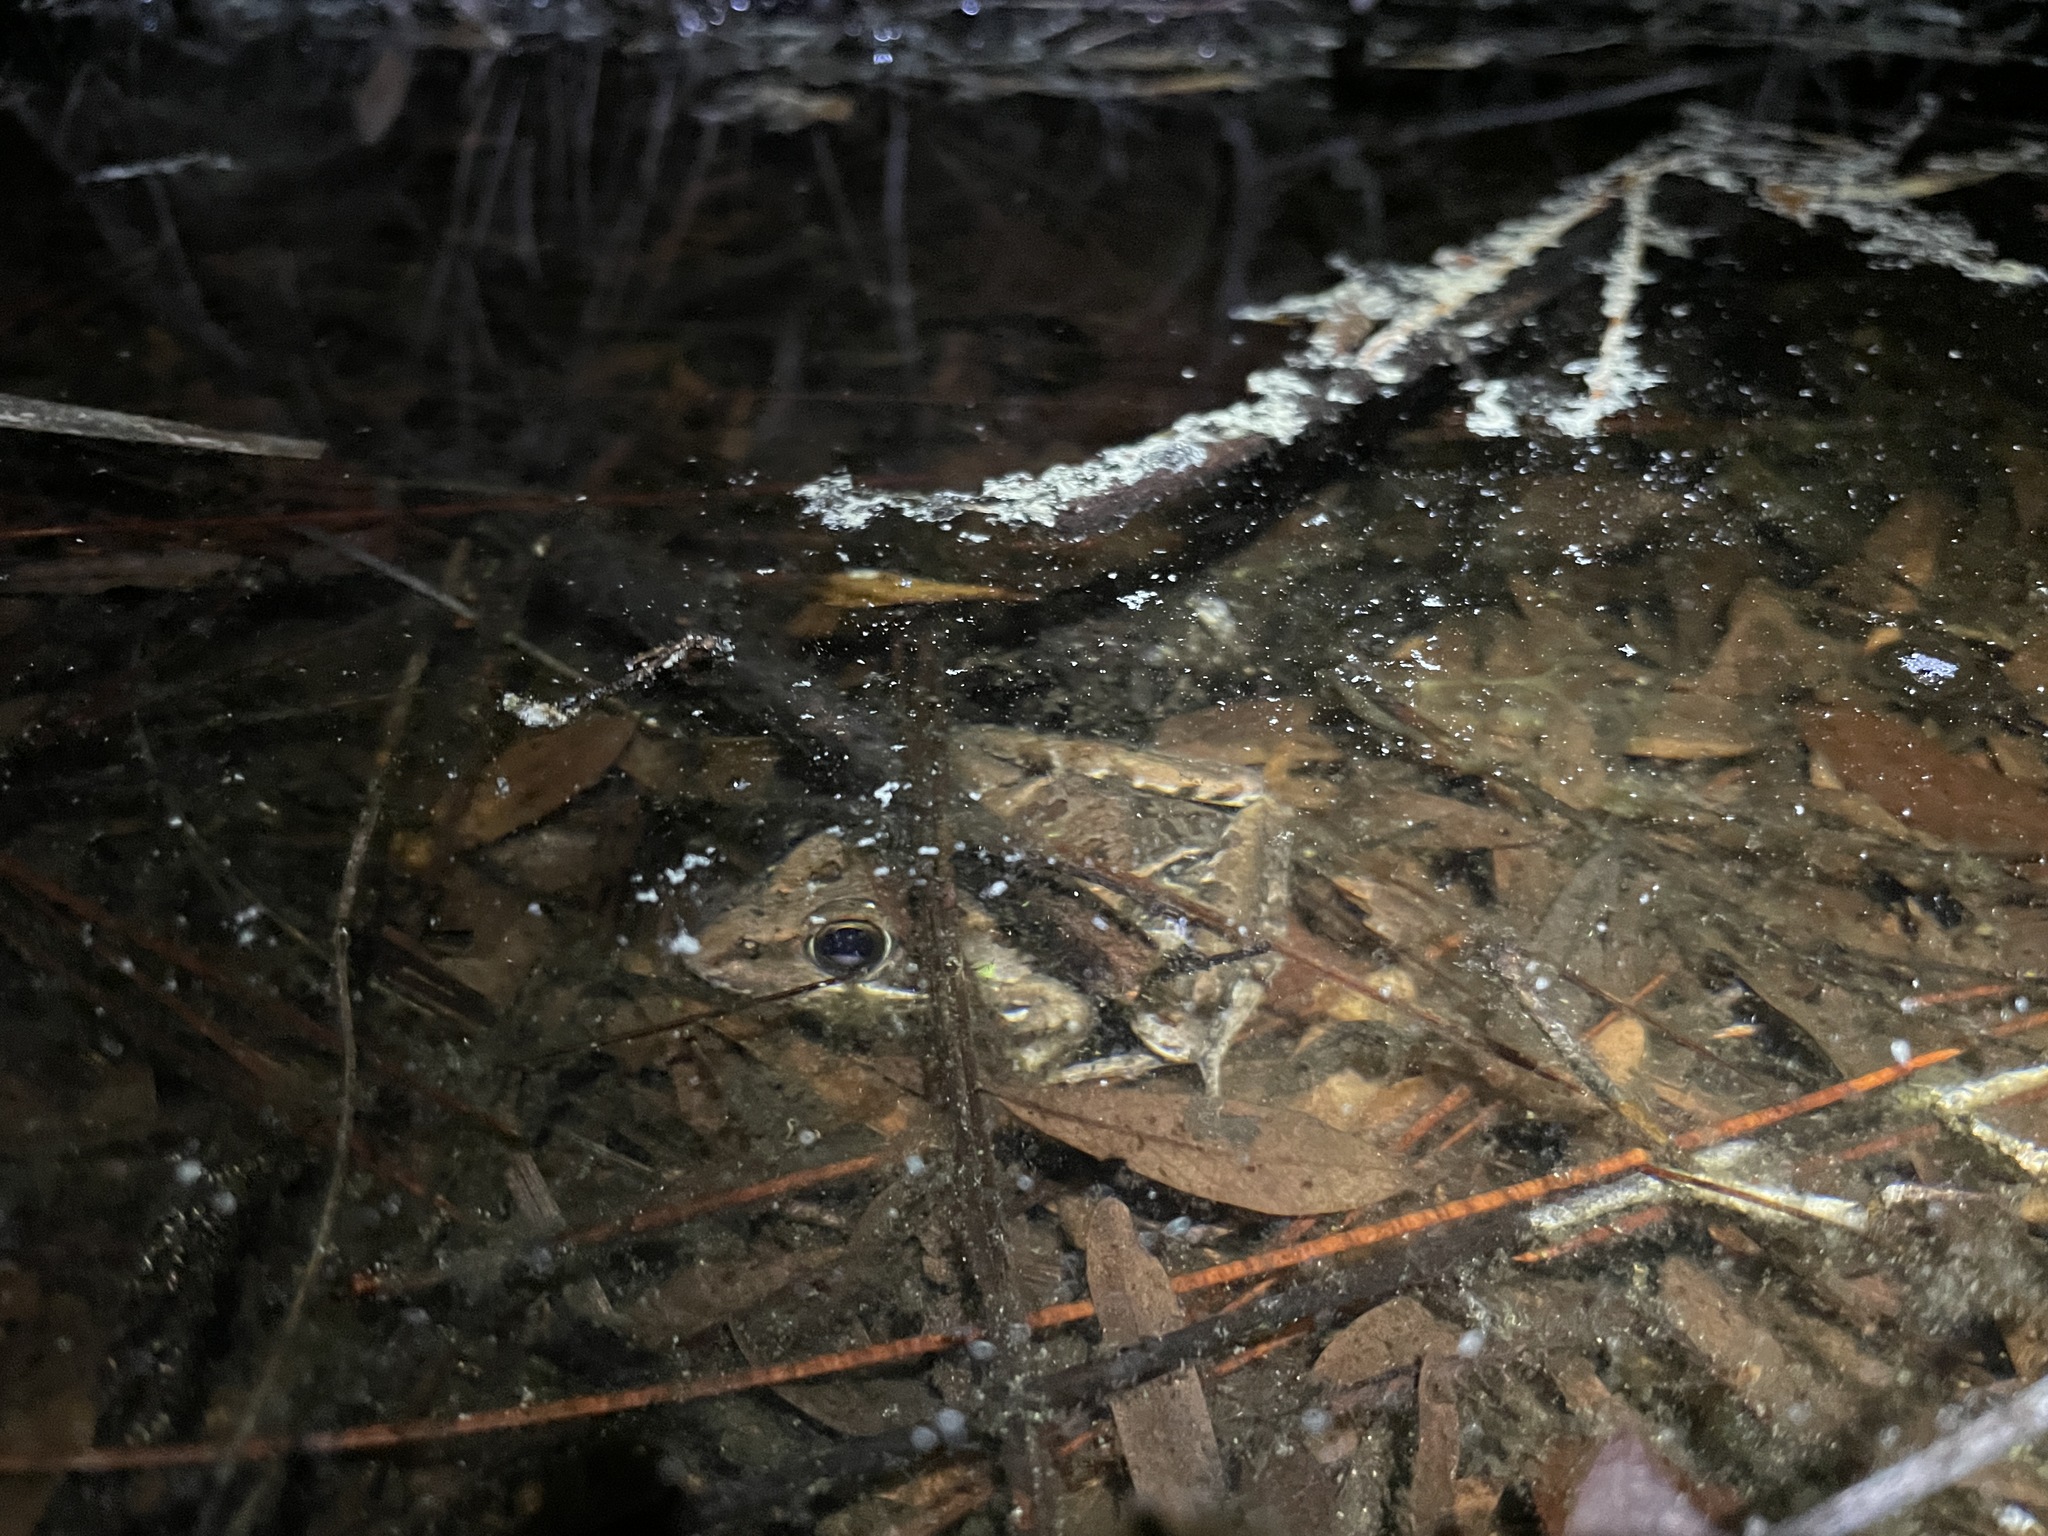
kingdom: Animalia
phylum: Chordata
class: Amphibia
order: Anura
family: Ranidae
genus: Lithobates
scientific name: Lithobates sphenocephalus
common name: Southern leopard frog
